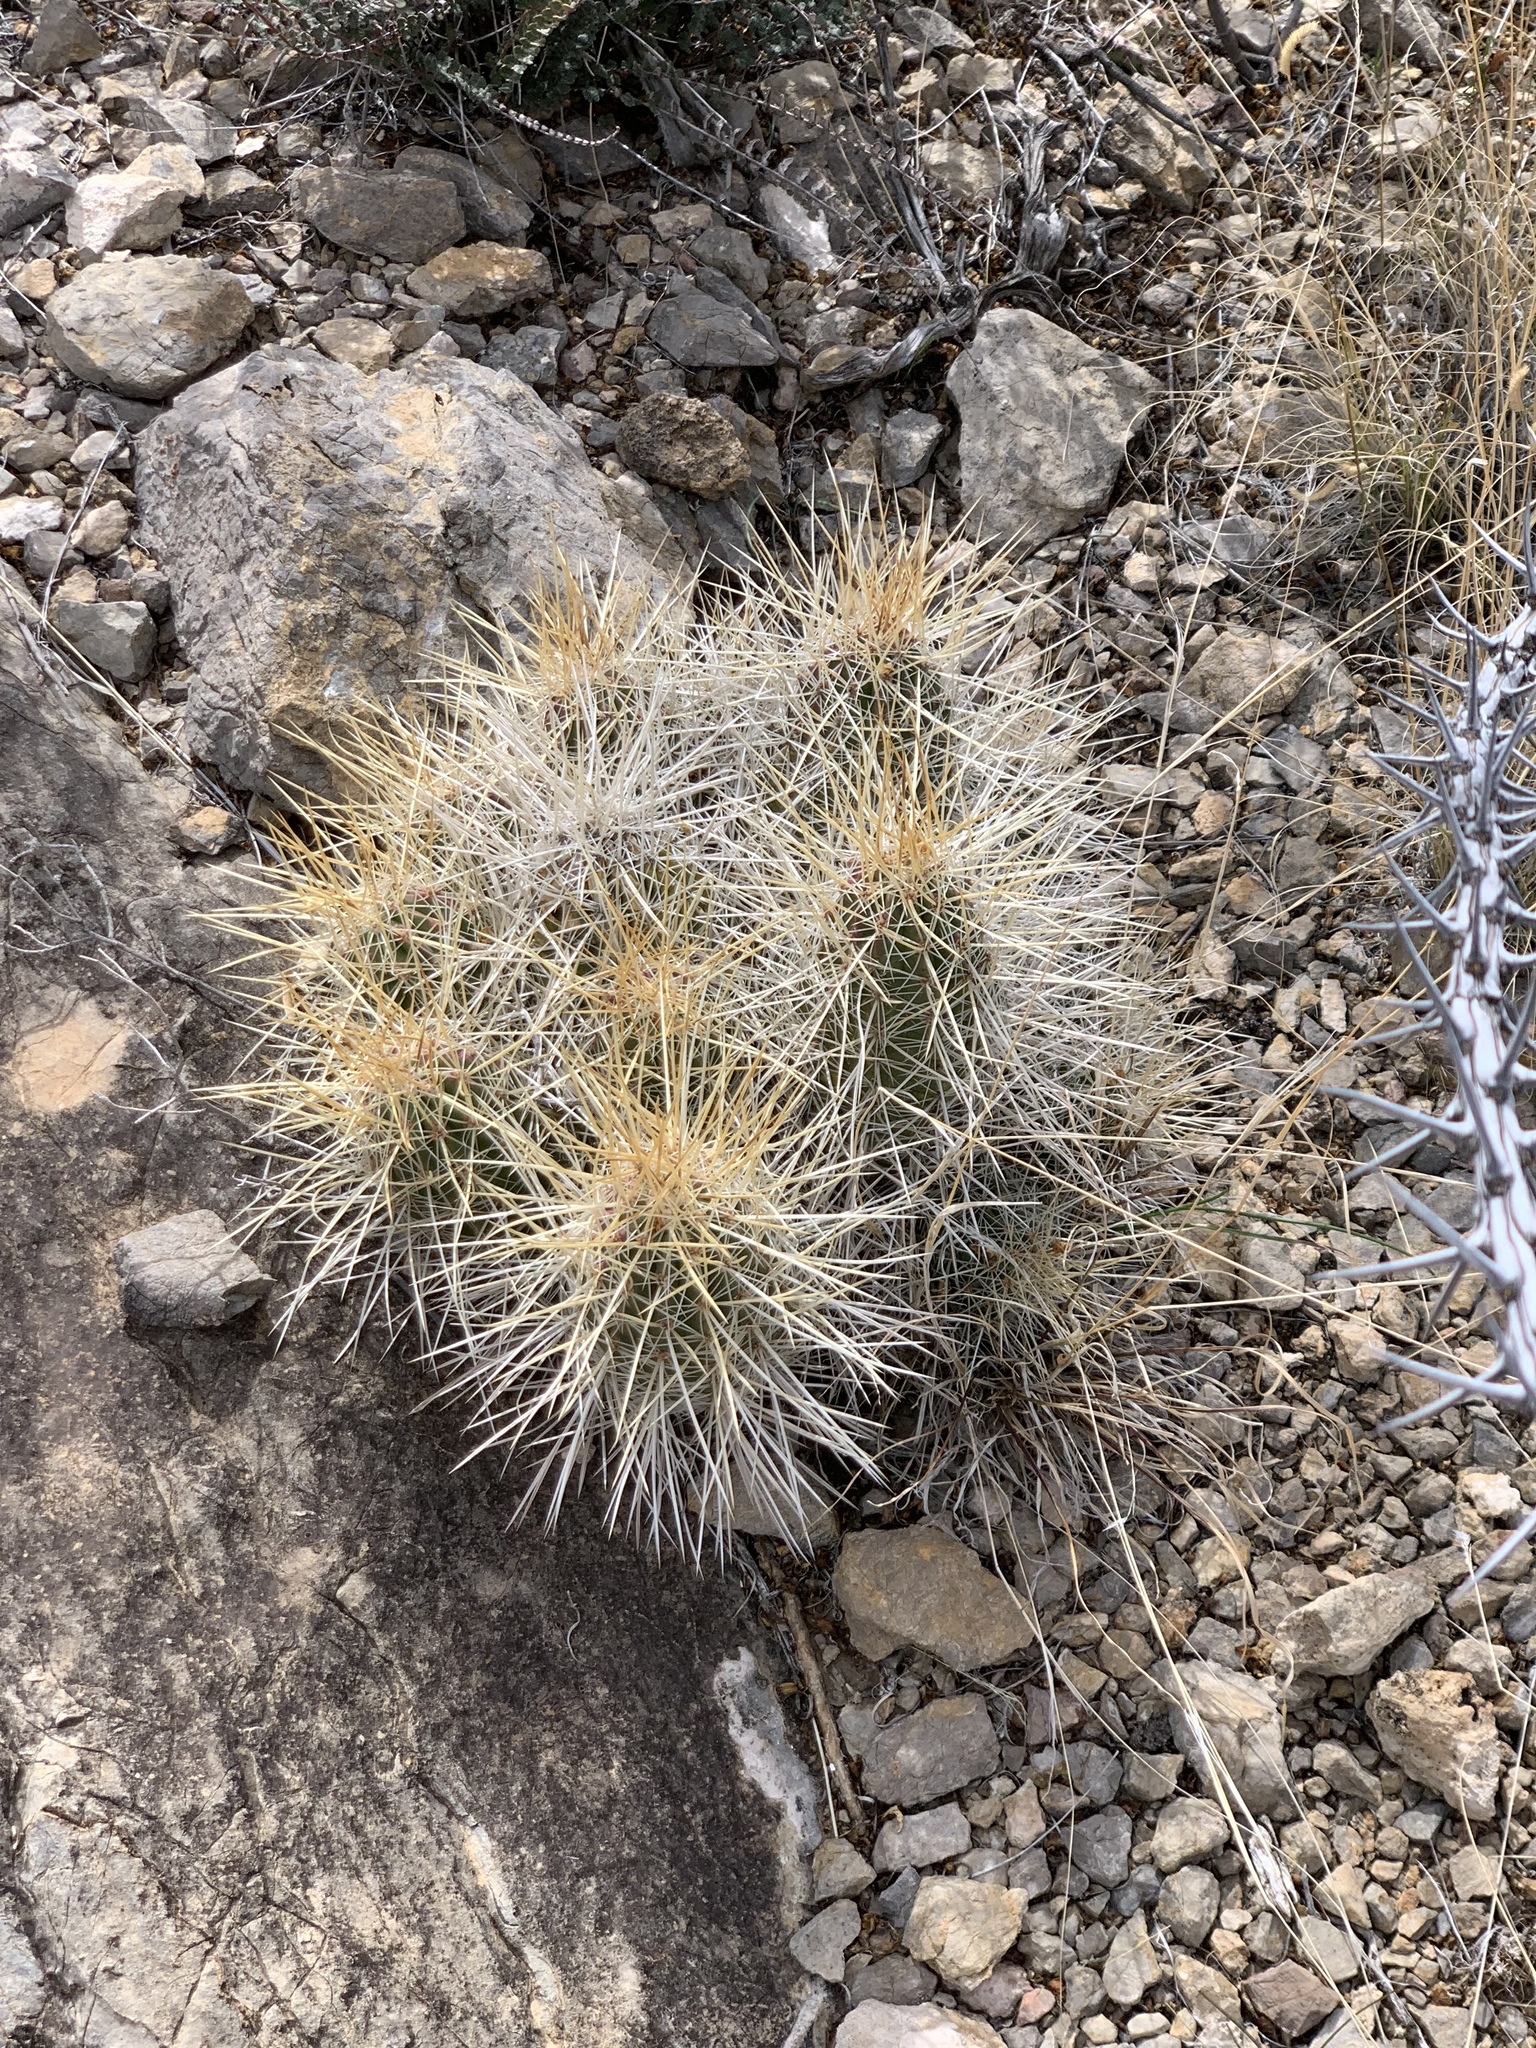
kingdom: Plantae
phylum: Tracheophyta
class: Magnoliopsida
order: Caryophyllales
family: Cactaceae
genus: Echinocereus
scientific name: Echinocereus stramineus
